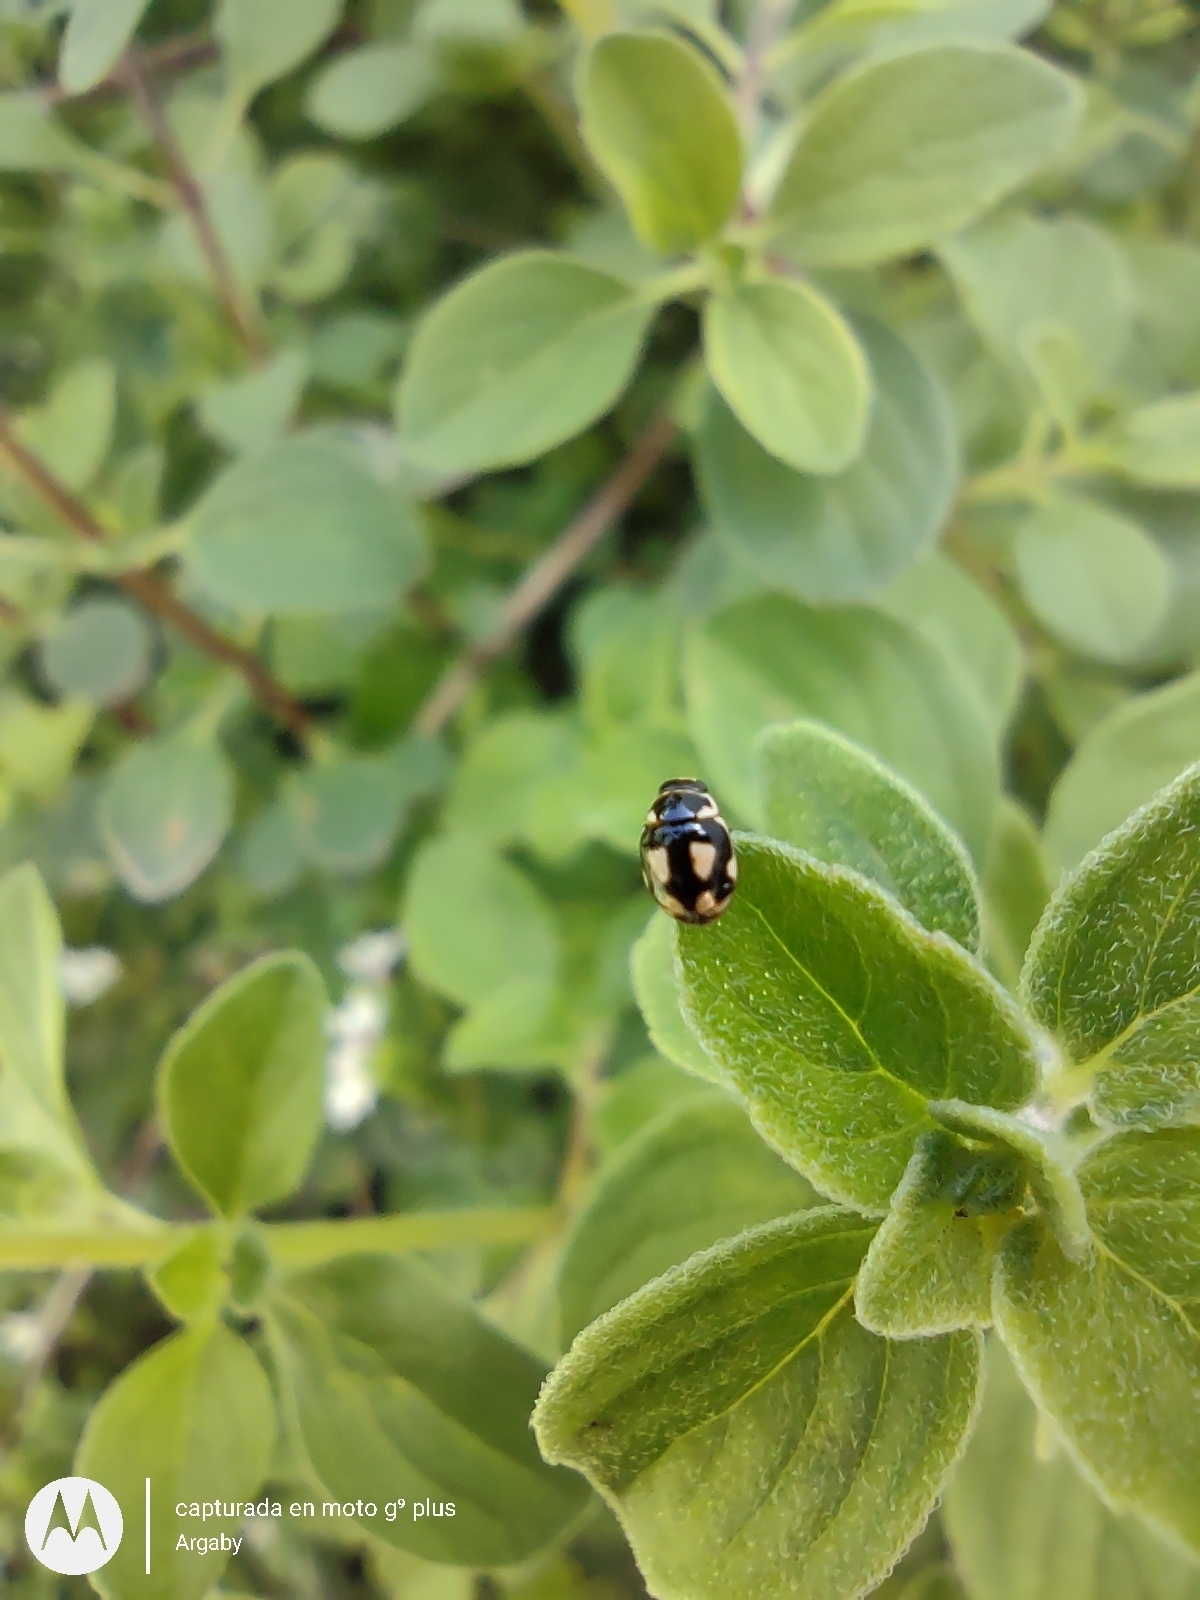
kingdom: Animalia
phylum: Arthropoda
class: Insecta
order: Coleoptera
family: Coccinellidae
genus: Hyperaspis
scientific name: Hyperaspis festiva
